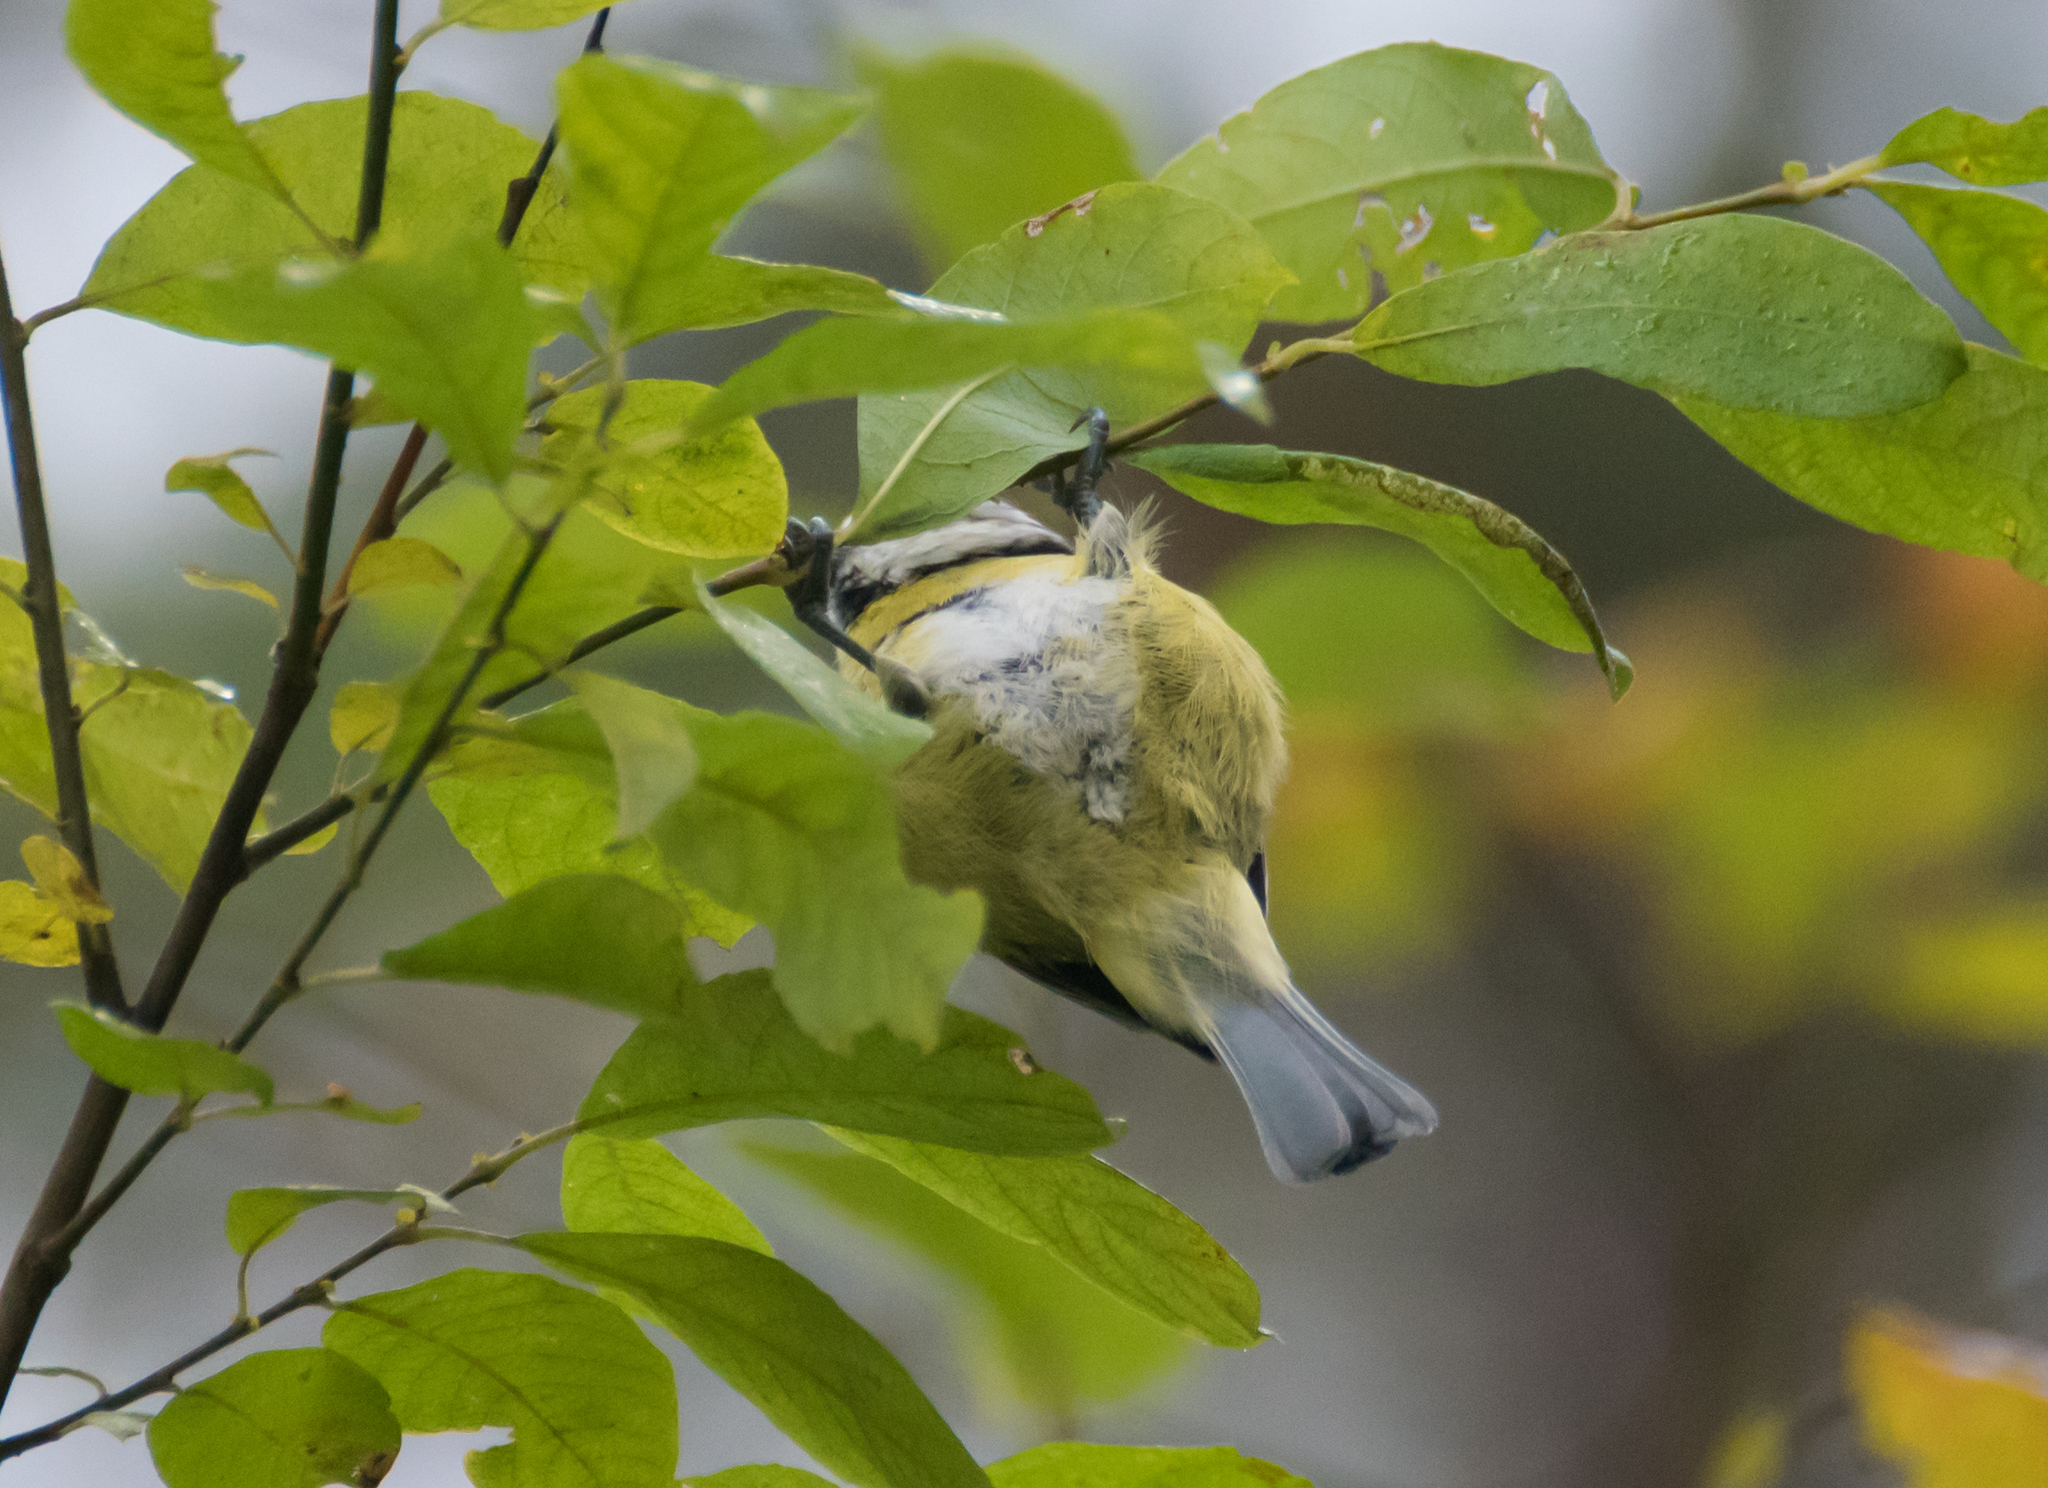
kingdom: Animalia
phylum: Chordata
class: Aves
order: Passeriformes
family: Paridae
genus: Cyanistes
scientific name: Cyanistes caeruleus
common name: Eurasian blue tit
